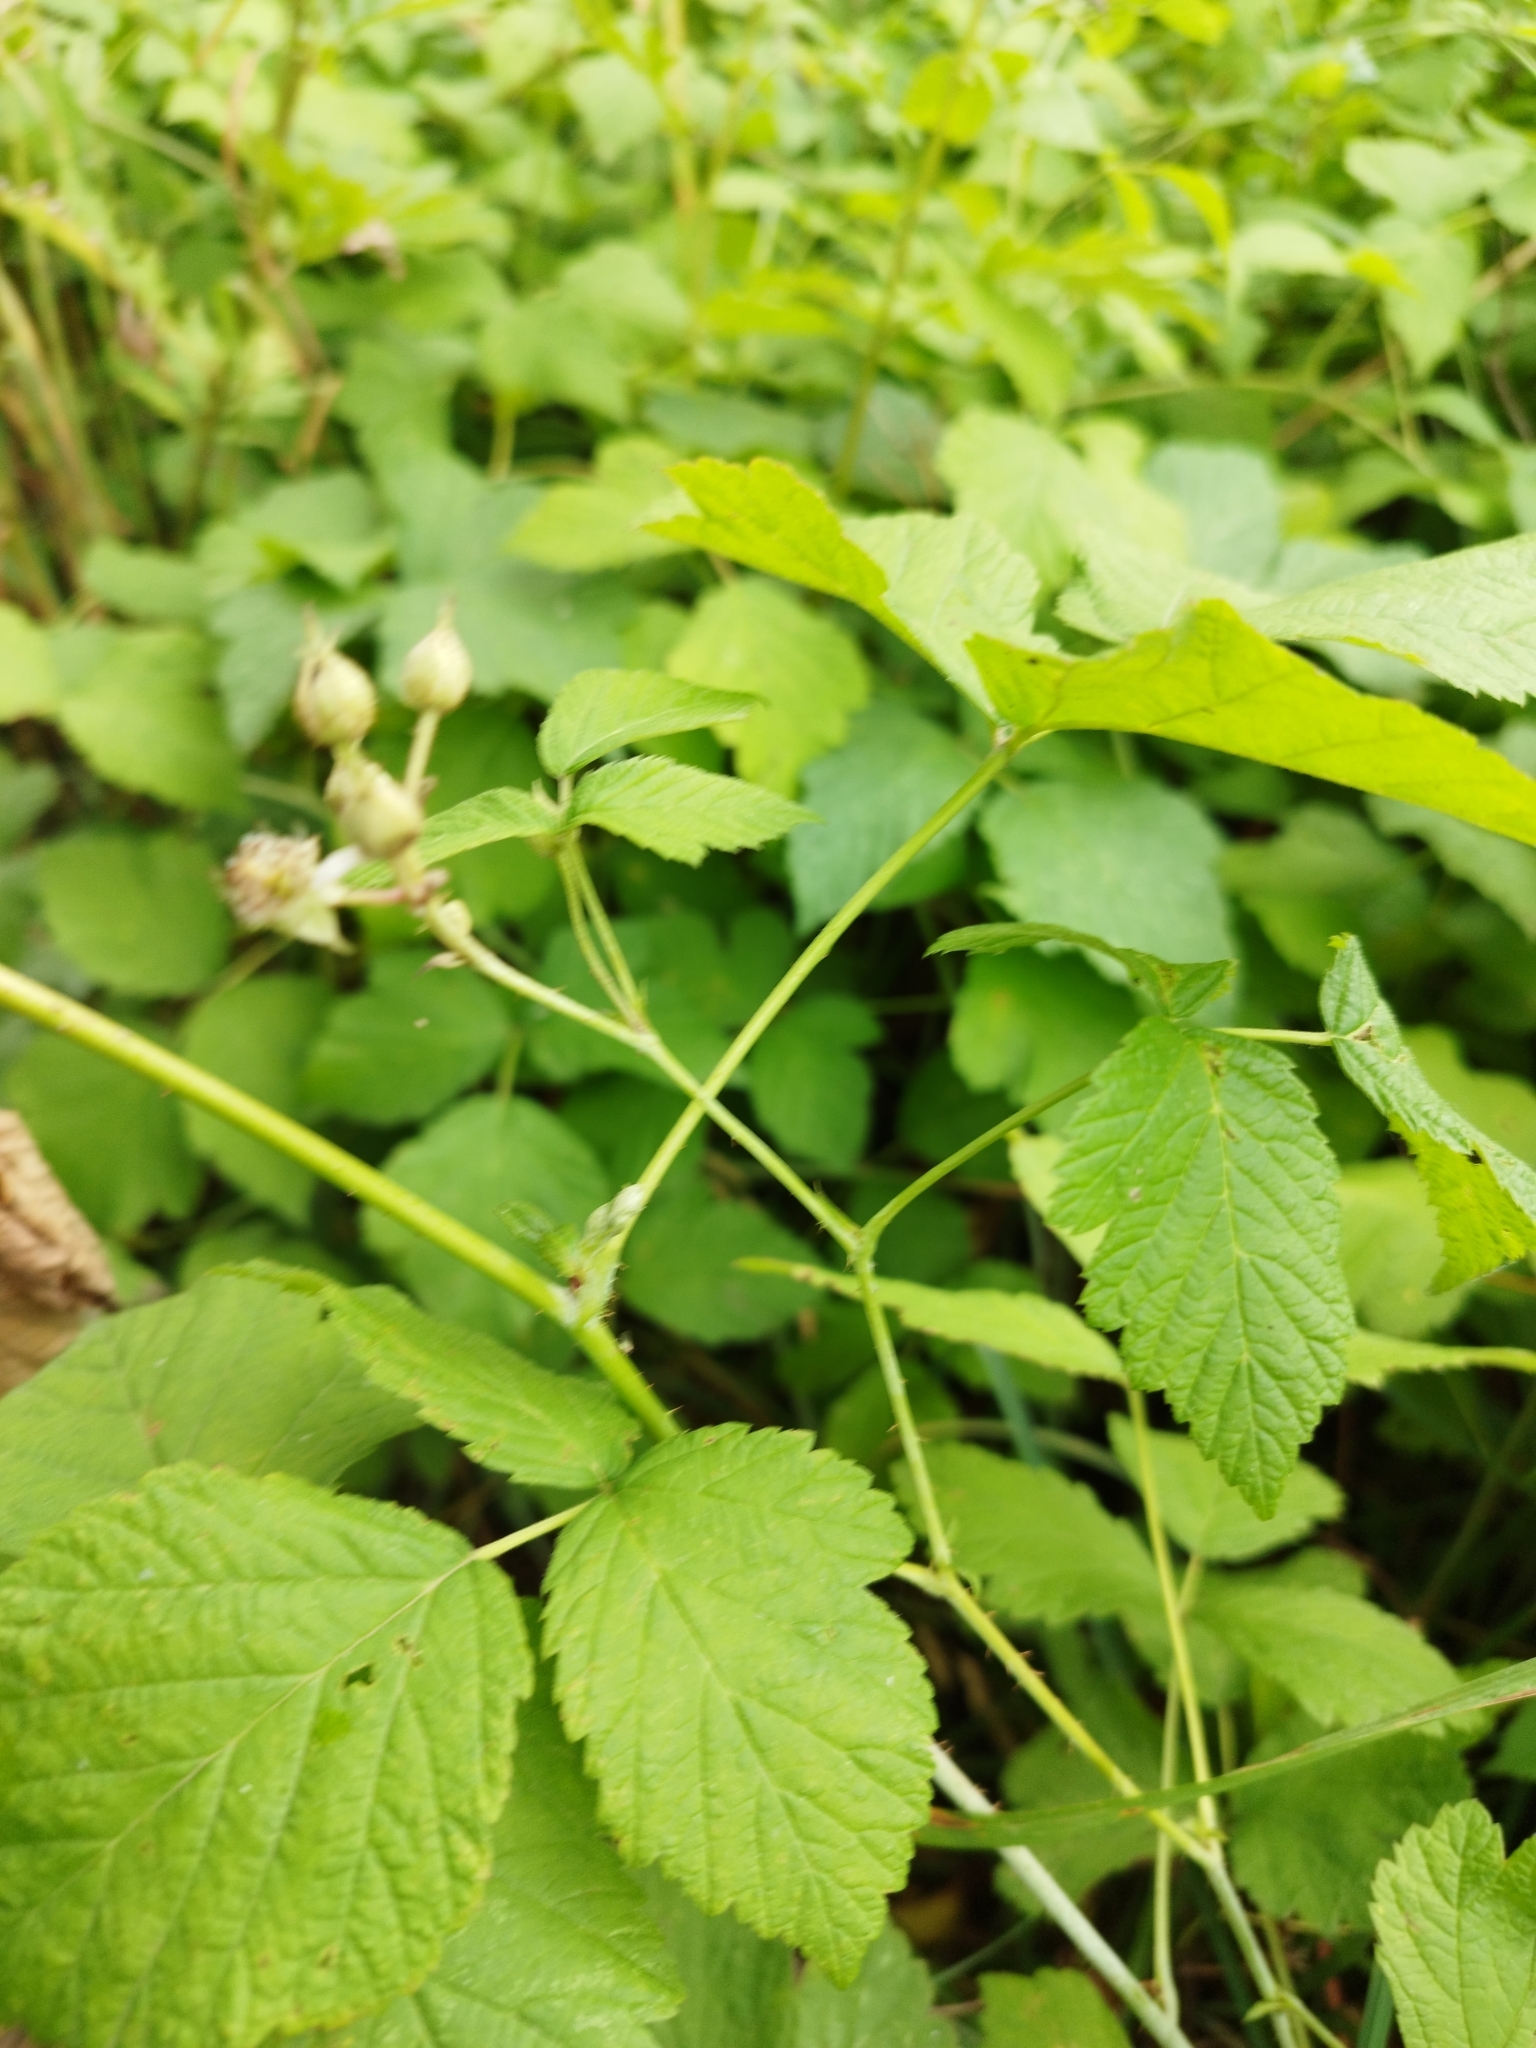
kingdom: Plantae
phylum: Tracheophyta
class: Magnoliopsida
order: Rosales
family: Rosaceae
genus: Rubus
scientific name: Rubus caesius
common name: Dewberry
